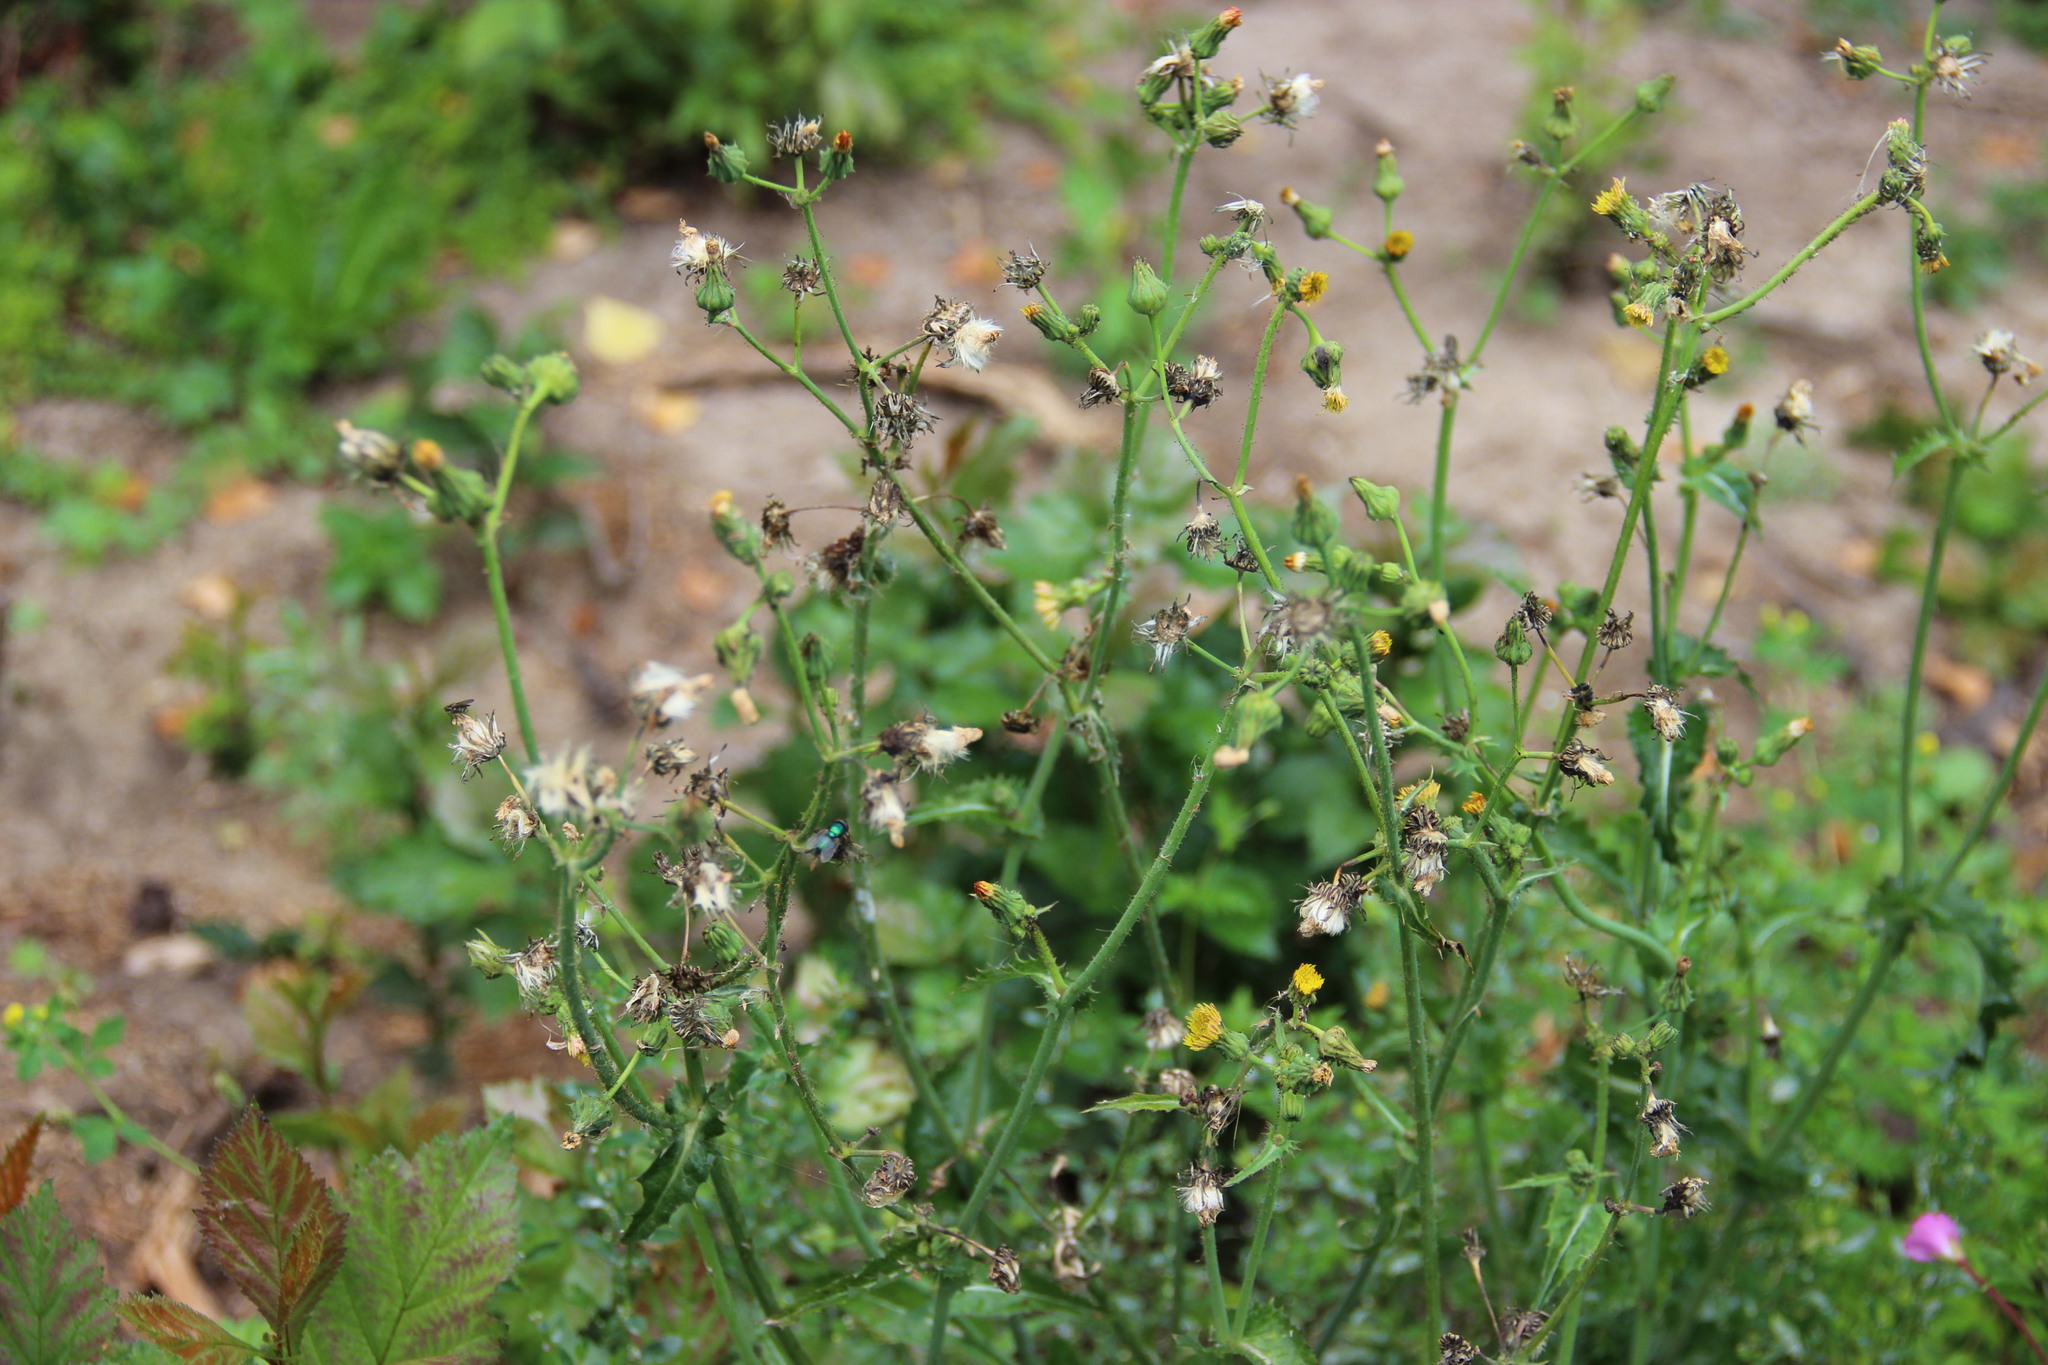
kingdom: Plantae
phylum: Tracheophyta
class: Magnoliopsida
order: Asterales
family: Asteraceae
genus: Sonchus
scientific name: Sonchus oleraceus
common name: Common sowthistle
